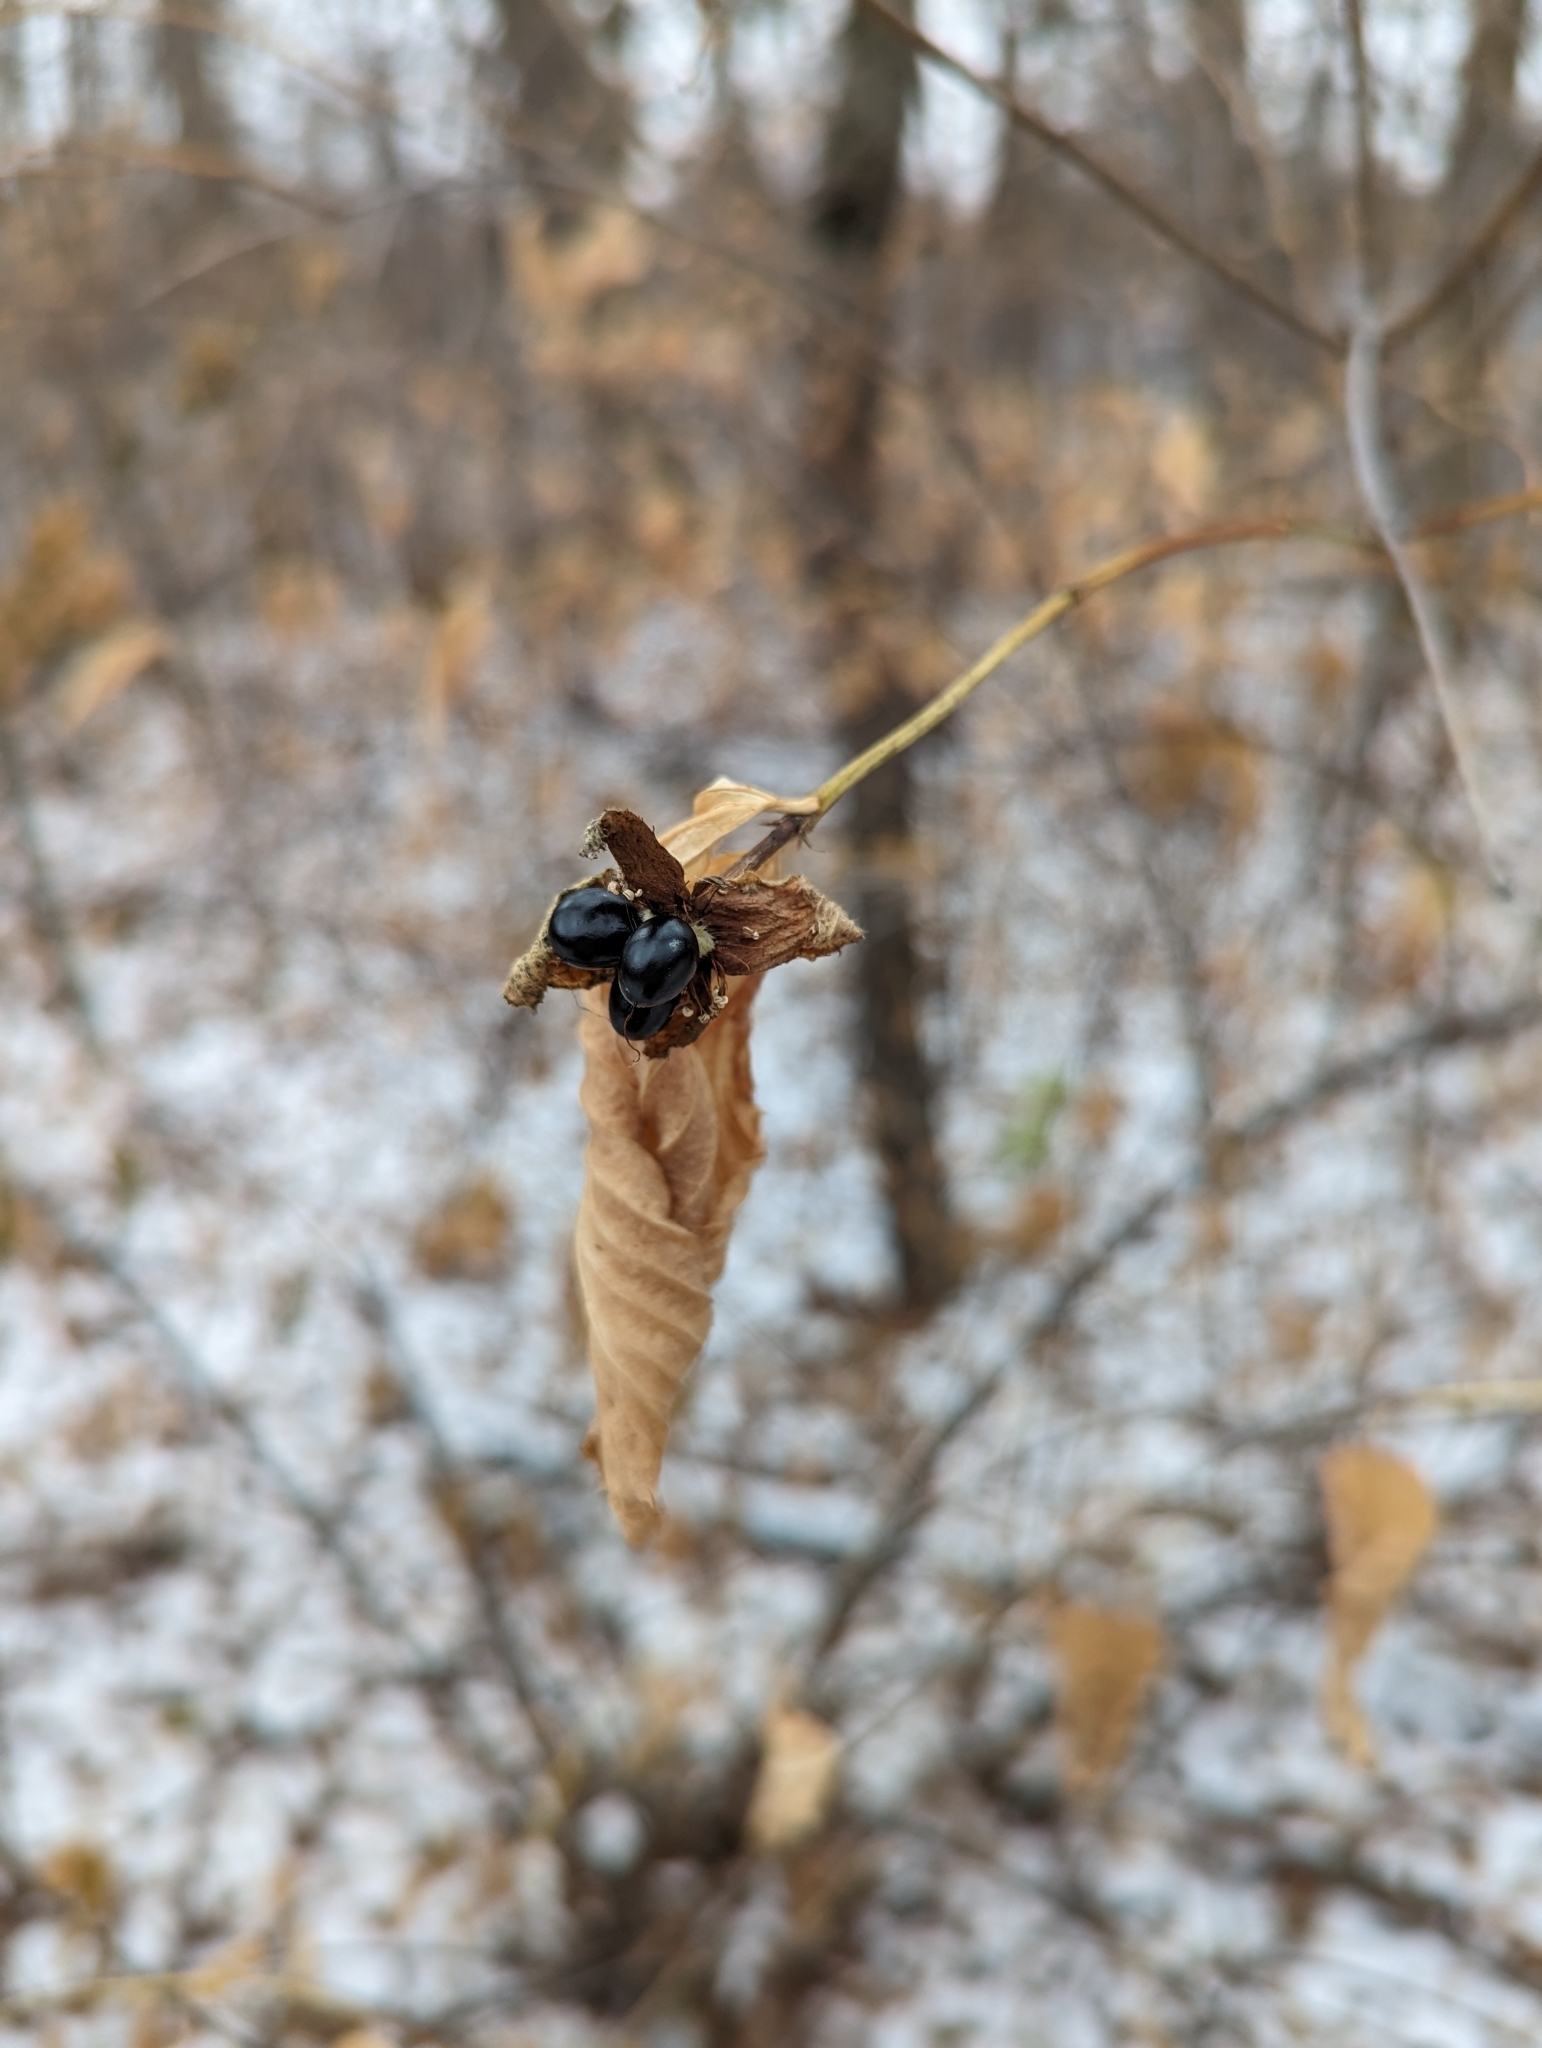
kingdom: Plantae
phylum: Tracheophyta
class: Magnoliopsida
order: Rosales
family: Rosaceae
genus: Rhodotypos
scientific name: Rhodotypos scandens
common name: Jetbead
